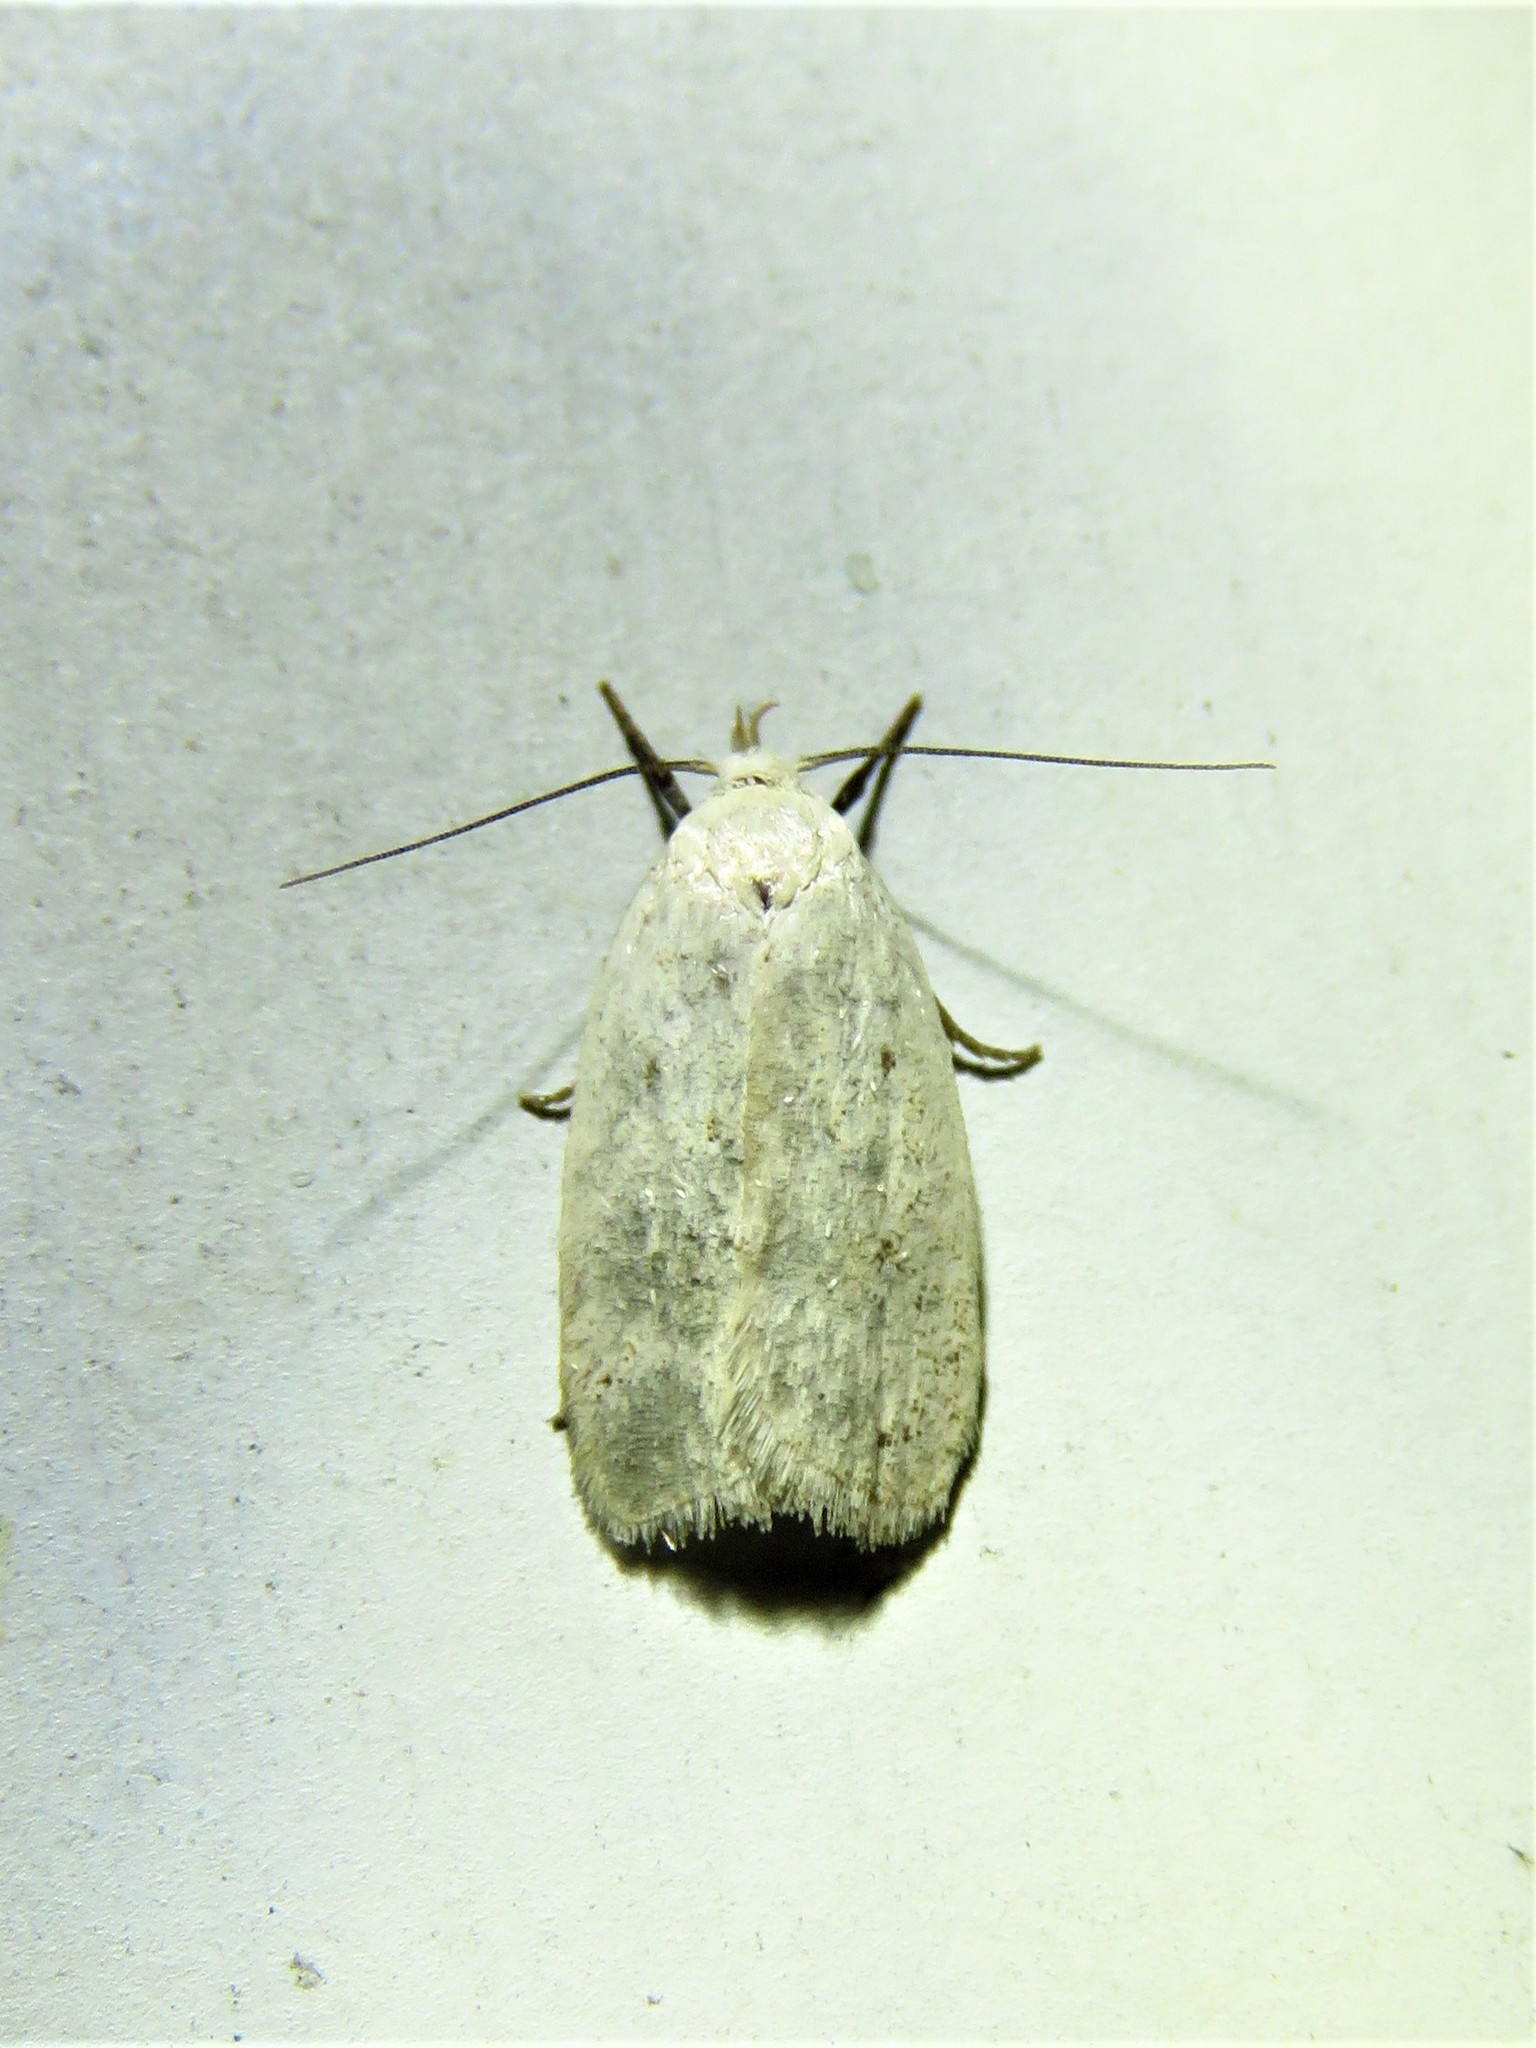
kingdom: Animalia
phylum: Arthropoda
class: Insecta
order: Lepidoptera
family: Oecophoridae
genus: Inga
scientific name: Inga cretacea
